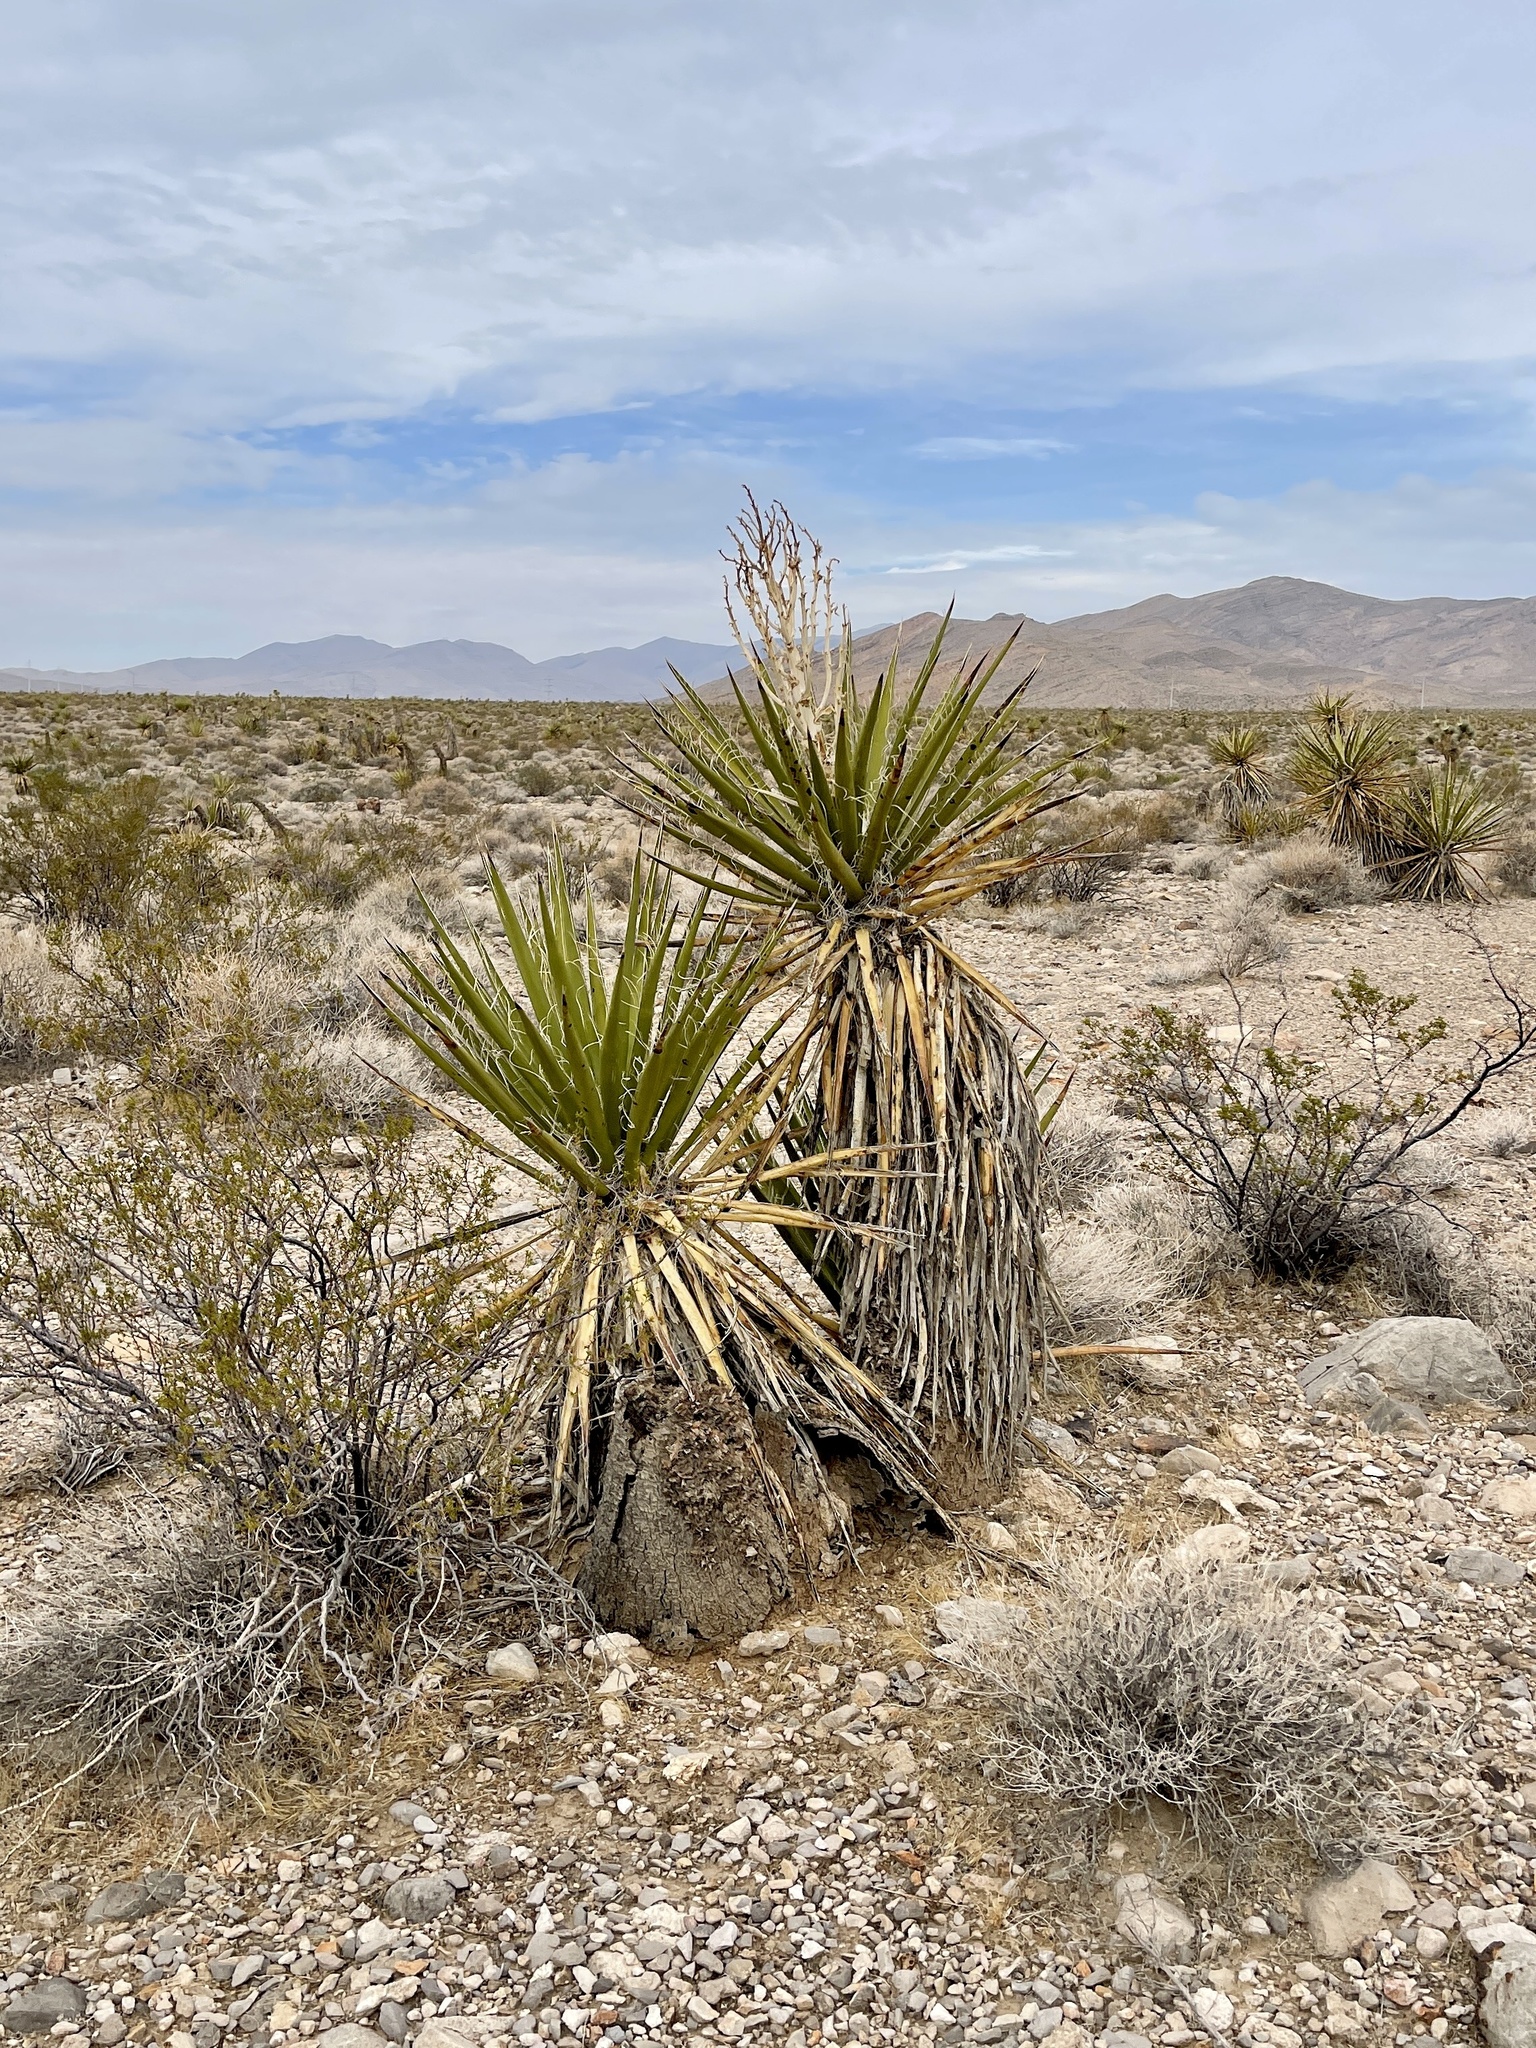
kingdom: Plantae
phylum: Tracheophyta
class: Liliopsida
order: Asparagales
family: Asparagaceae
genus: Yucca
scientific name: Yucca schidigera
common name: Mojave yucca
